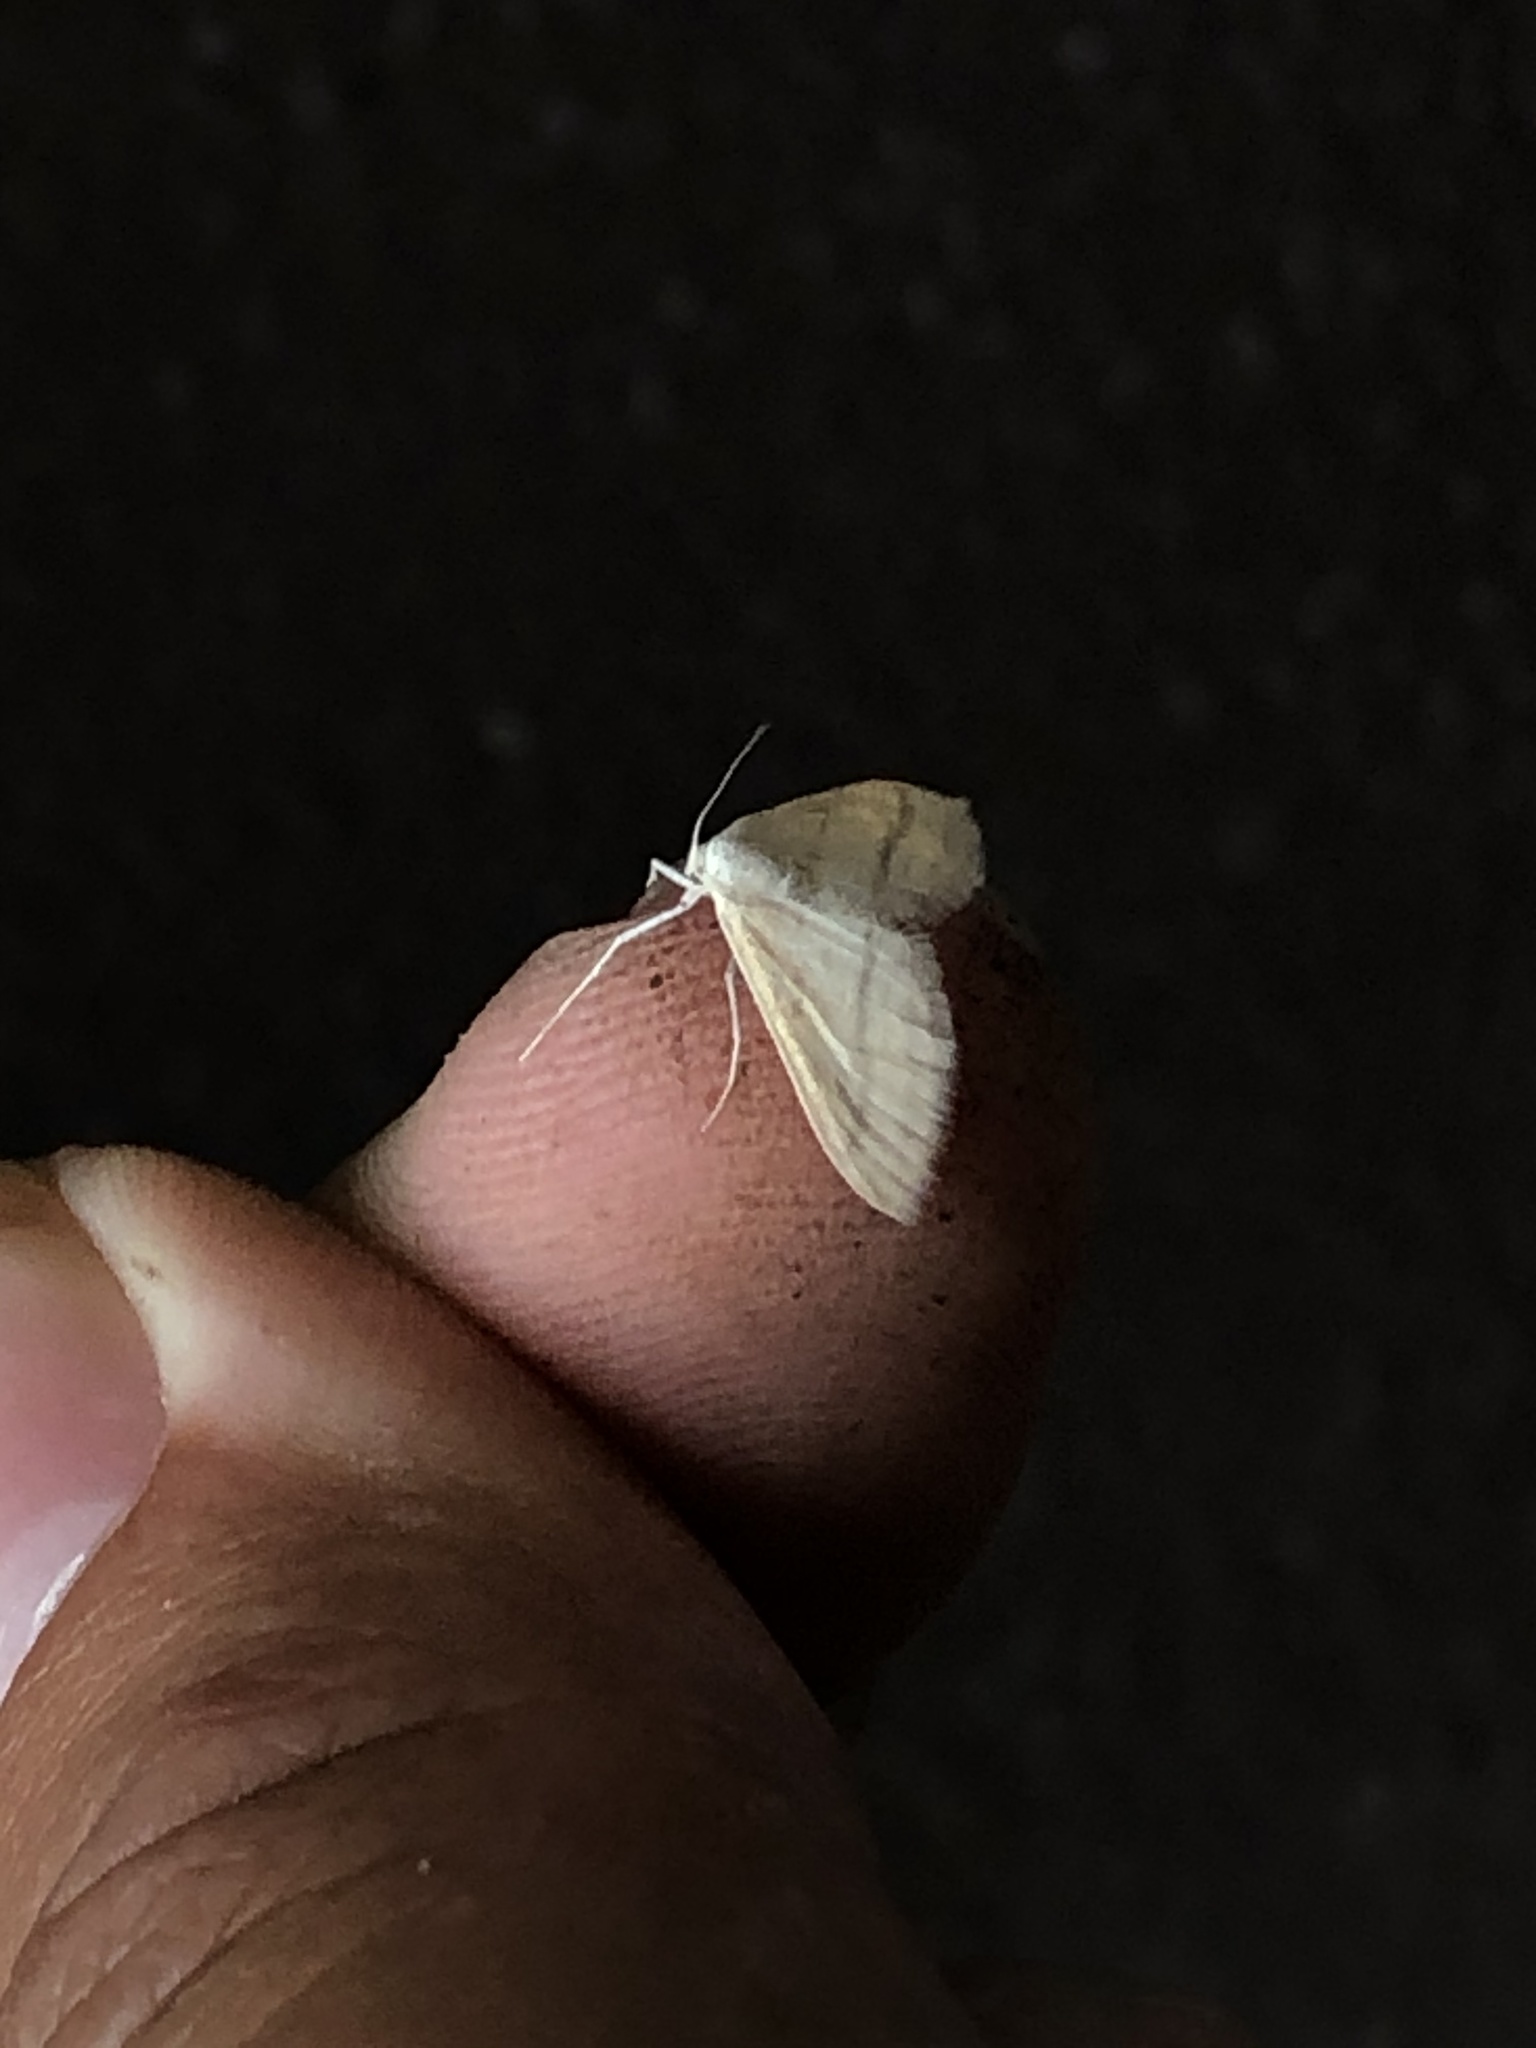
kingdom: Animalia
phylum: Arthropoda
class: Insecta
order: Lepidoptera
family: Geometridae
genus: Lobocleta
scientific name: Lobocleta plemyraria
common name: Straight-lined wave
